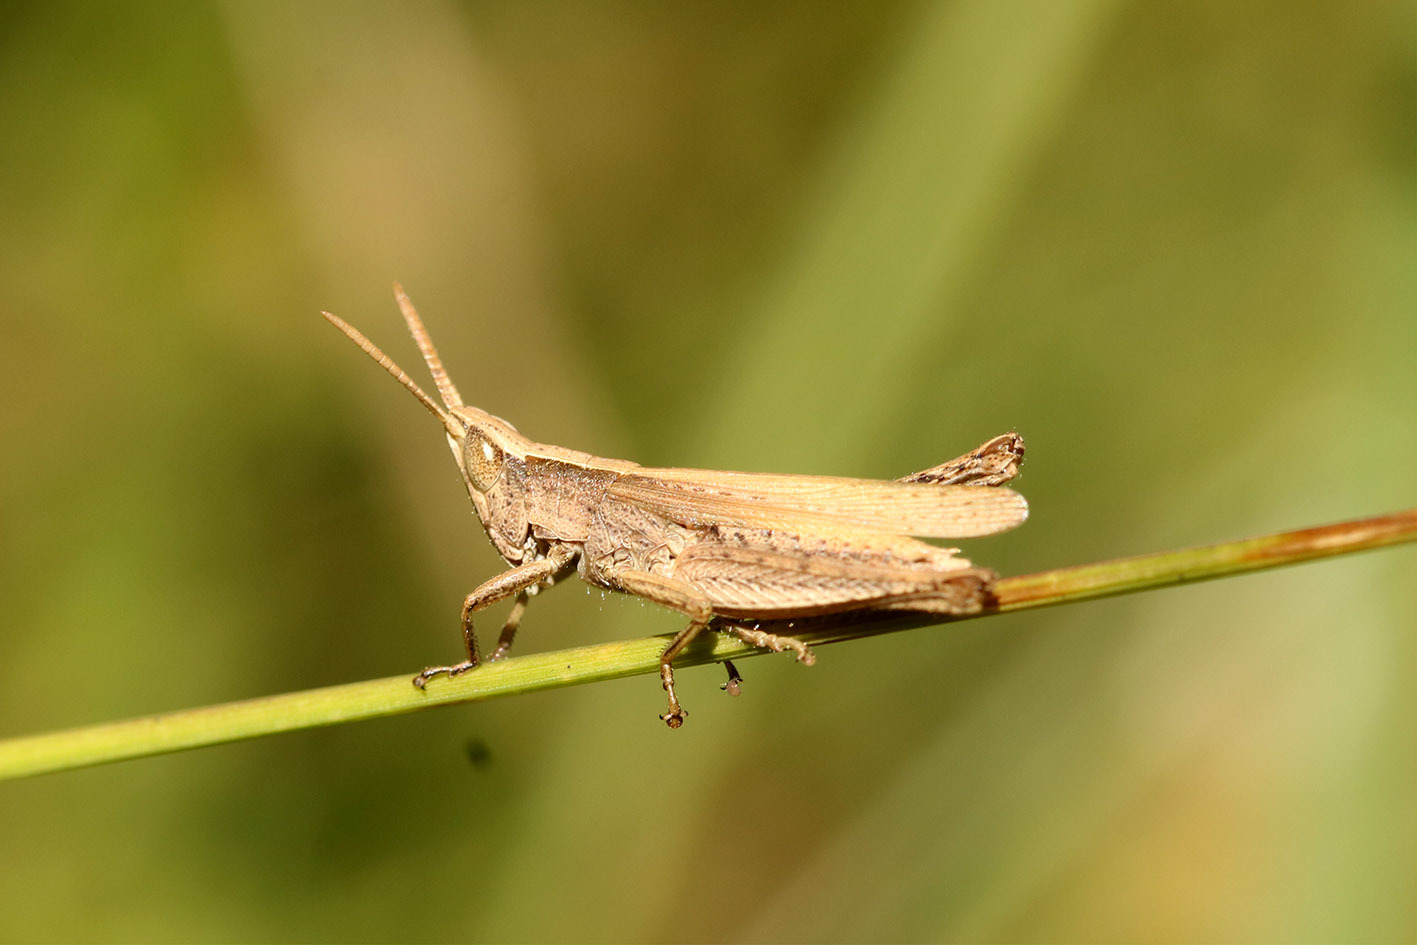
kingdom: Animalia
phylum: Arthropoda
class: Insecta
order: Orthoptera
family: Acrididae
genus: Laplatacris
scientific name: Laplatacris dispar
